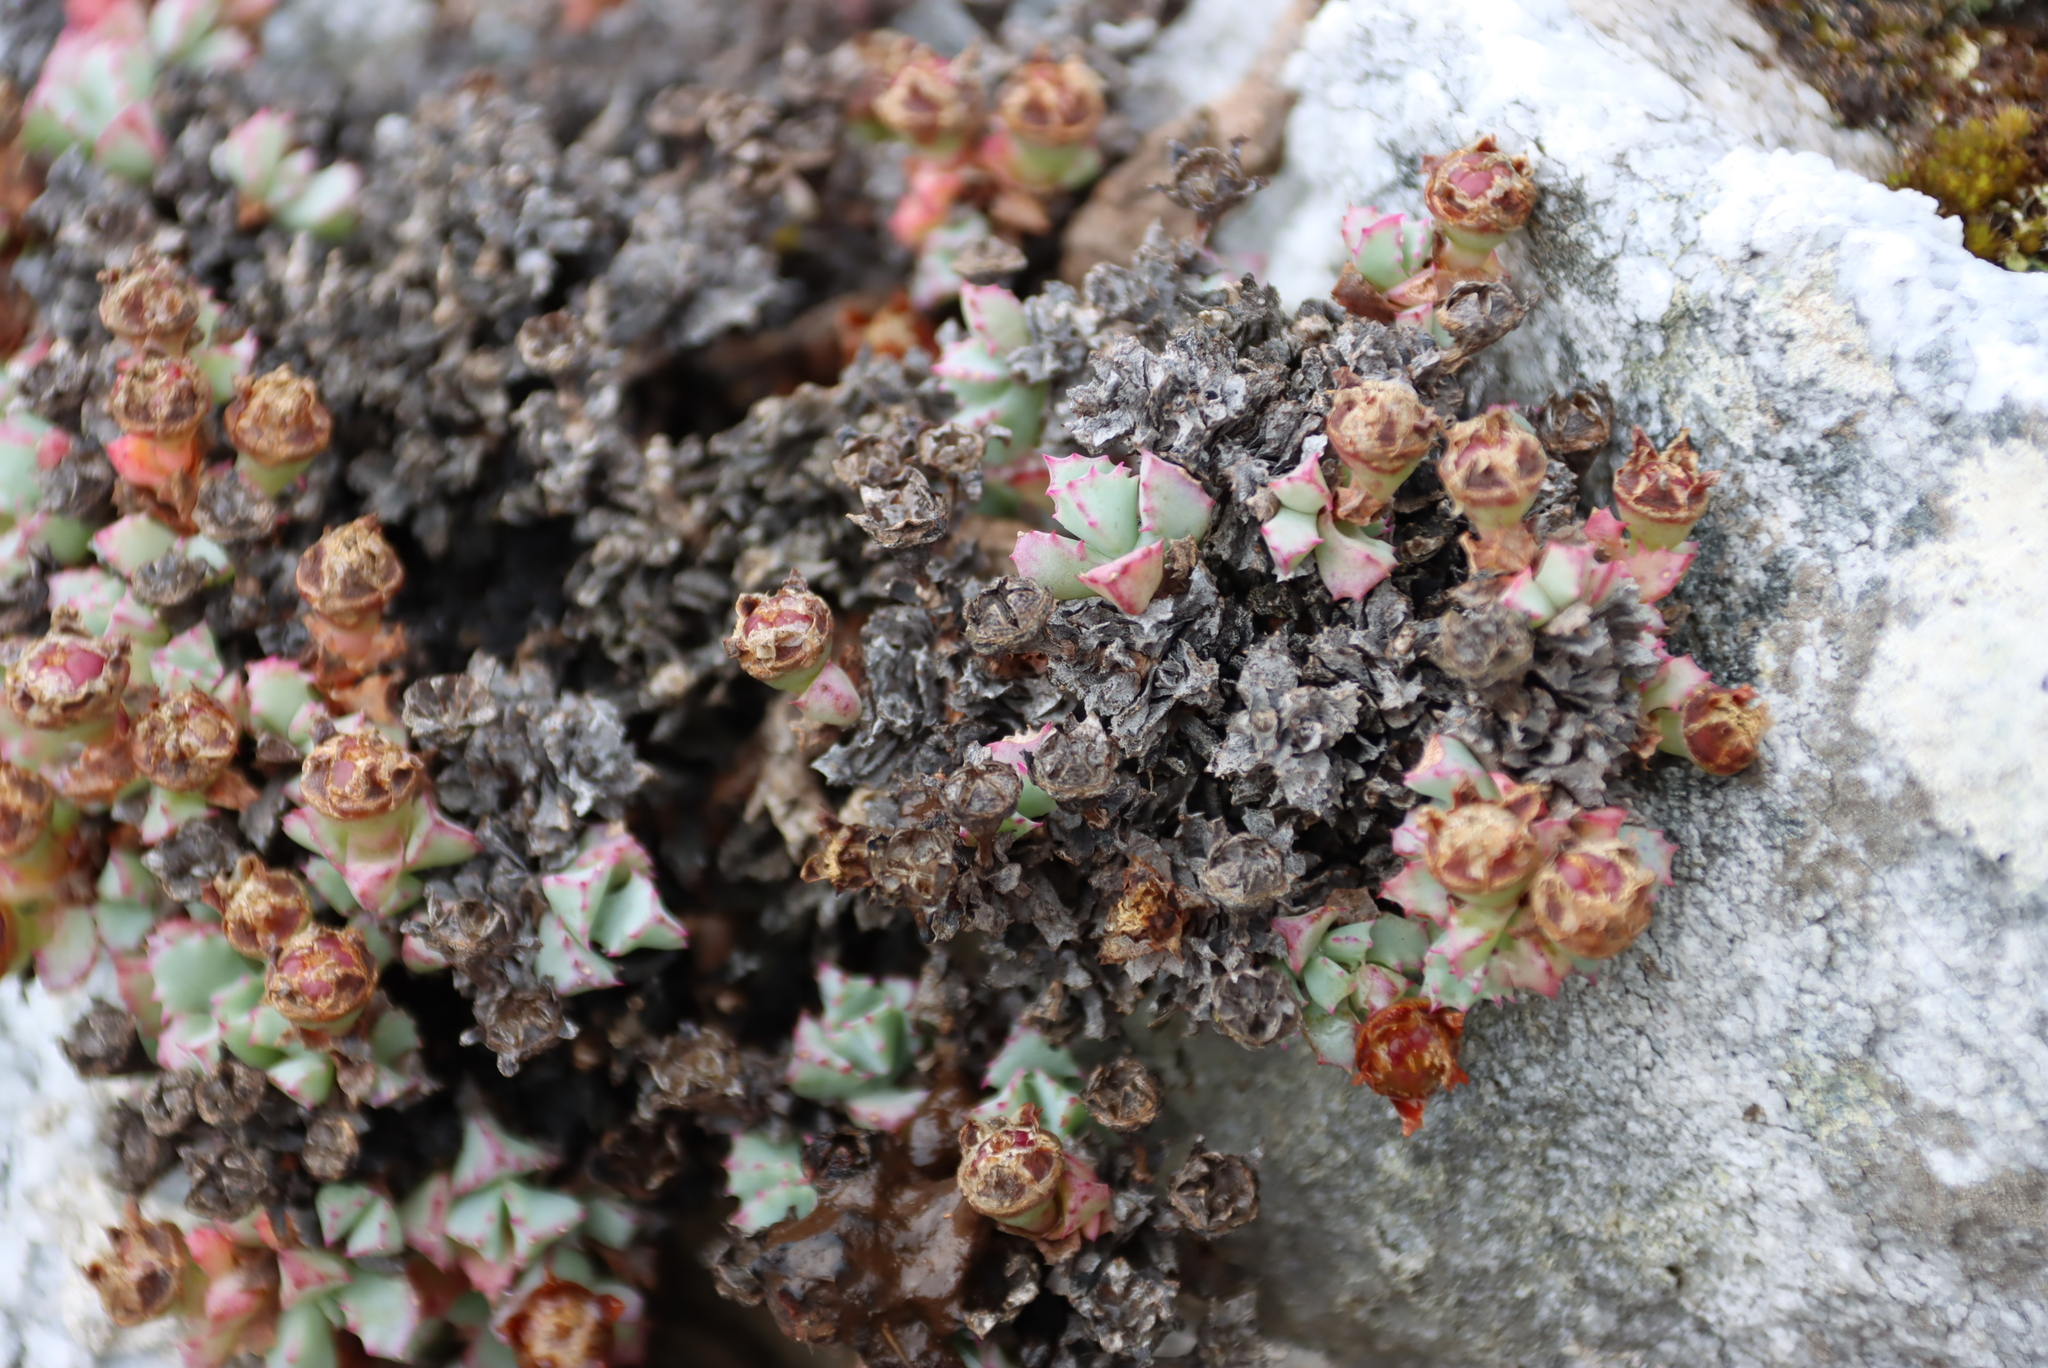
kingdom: Plantae
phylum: Tracheophyta
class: Magnoliopsida
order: Caryophyllales
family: Aizoaceae
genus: Oscularia
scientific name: Oscularia deltoides
